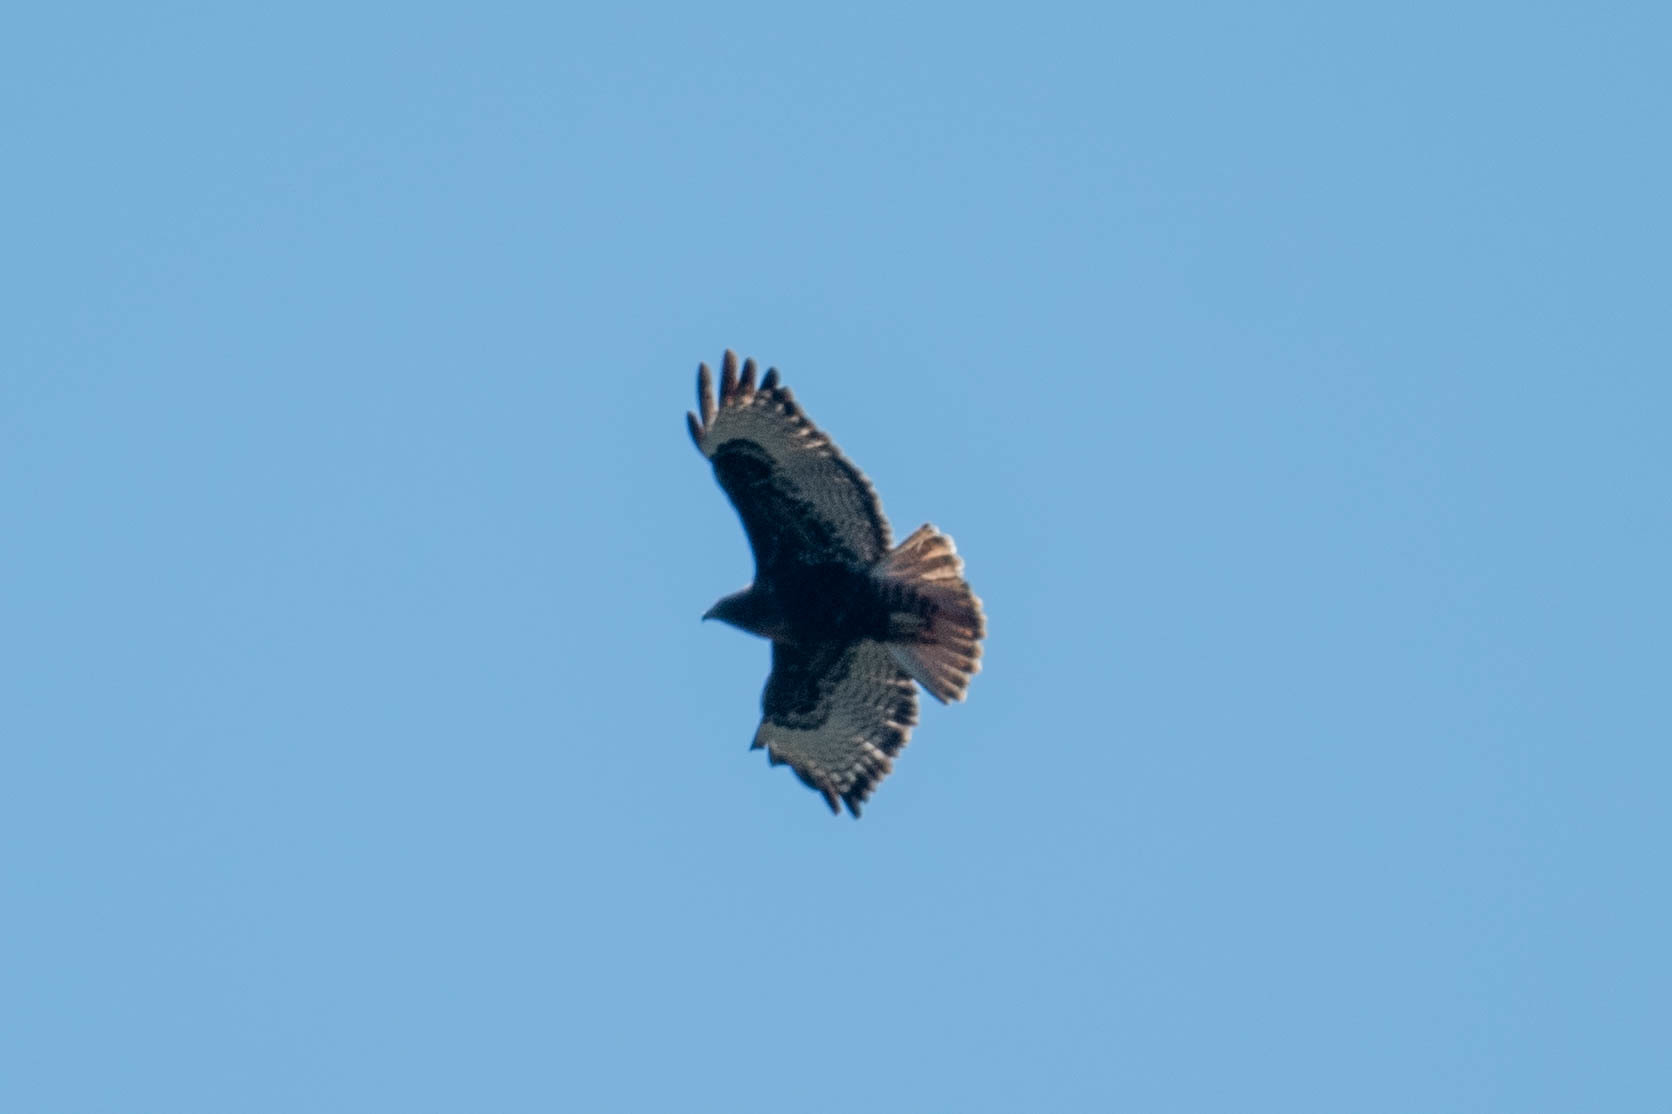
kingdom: Animalia
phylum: Chordata
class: Aves
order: Accipitriformes
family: Accipitridae
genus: Buteo
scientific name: Buteo jamaicensis
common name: Red-tailed hawk
